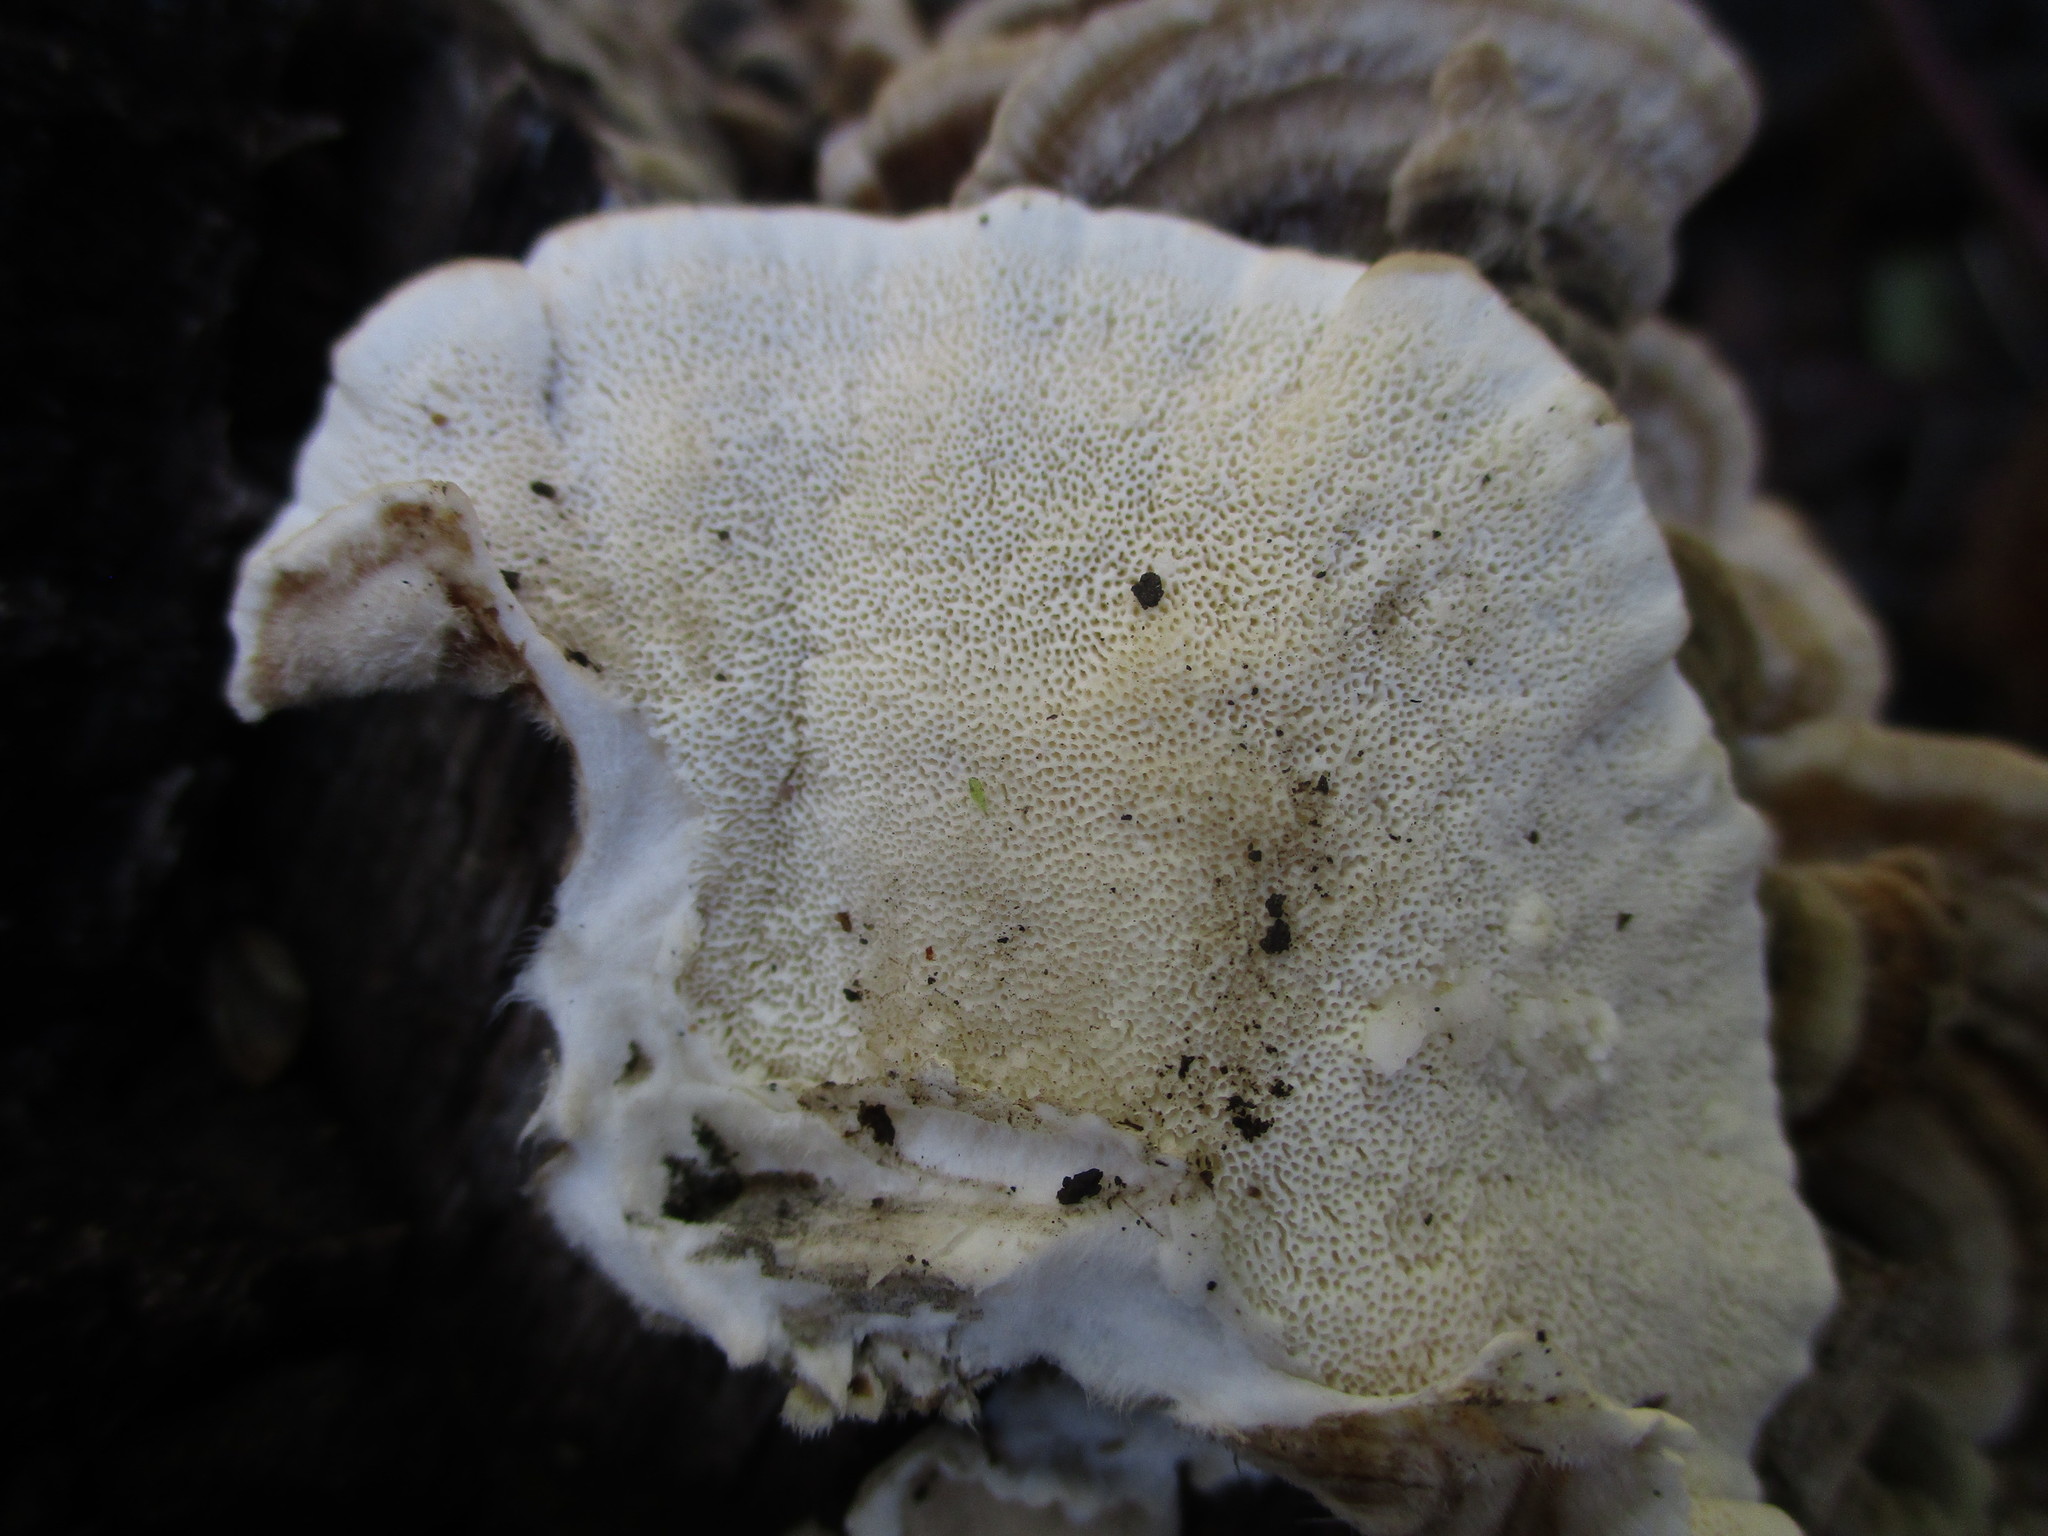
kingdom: Fungi
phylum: Basidiomycota
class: Agaricomycetes
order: Polyporales
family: Polyporaceae
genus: Trametes
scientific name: Trametes versicolor
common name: Turkeytail
